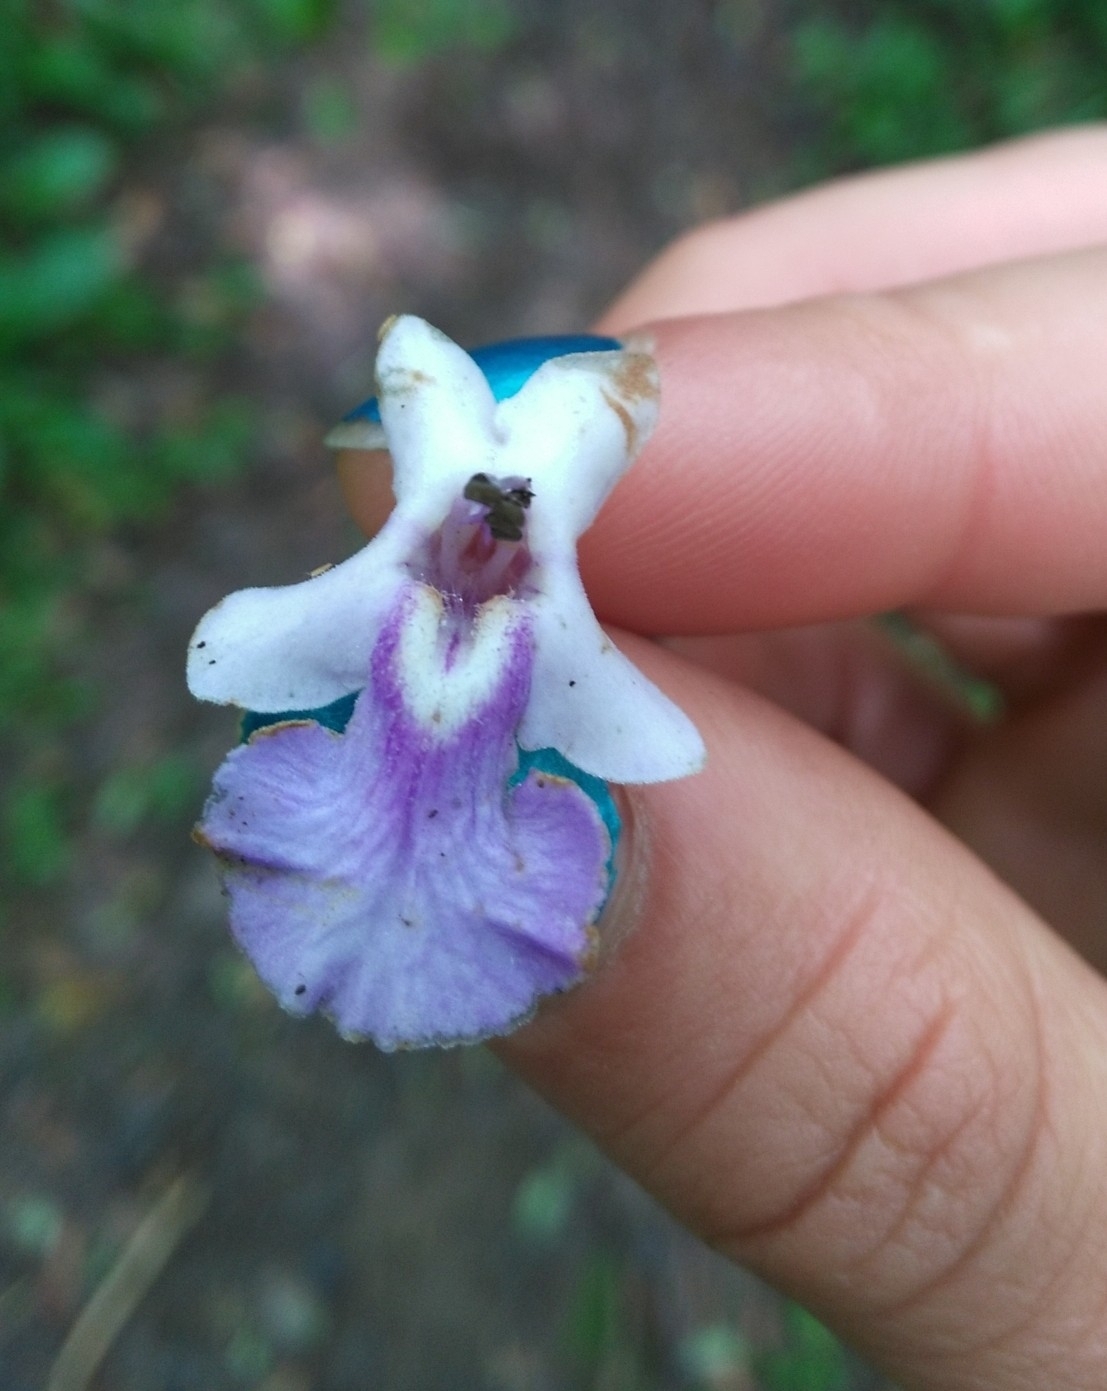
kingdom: Plantae
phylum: Tracheophyta
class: Magnoliopsida
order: Lamiales
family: Lamiaceae
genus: Vitex
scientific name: Vitex megapotamica
